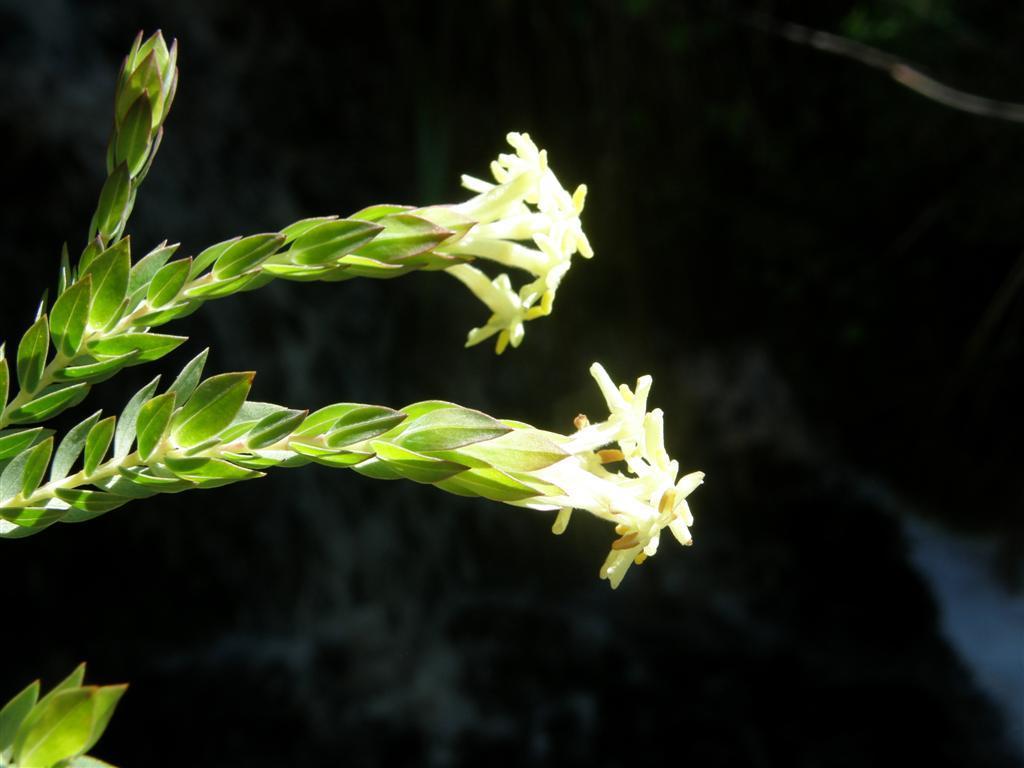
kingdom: Plantae
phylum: Tracheophyta
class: Magnoliopsida
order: Malvales
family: Thymelaeaceae
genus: Gnidia
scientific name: Gnidia oppositifolia
